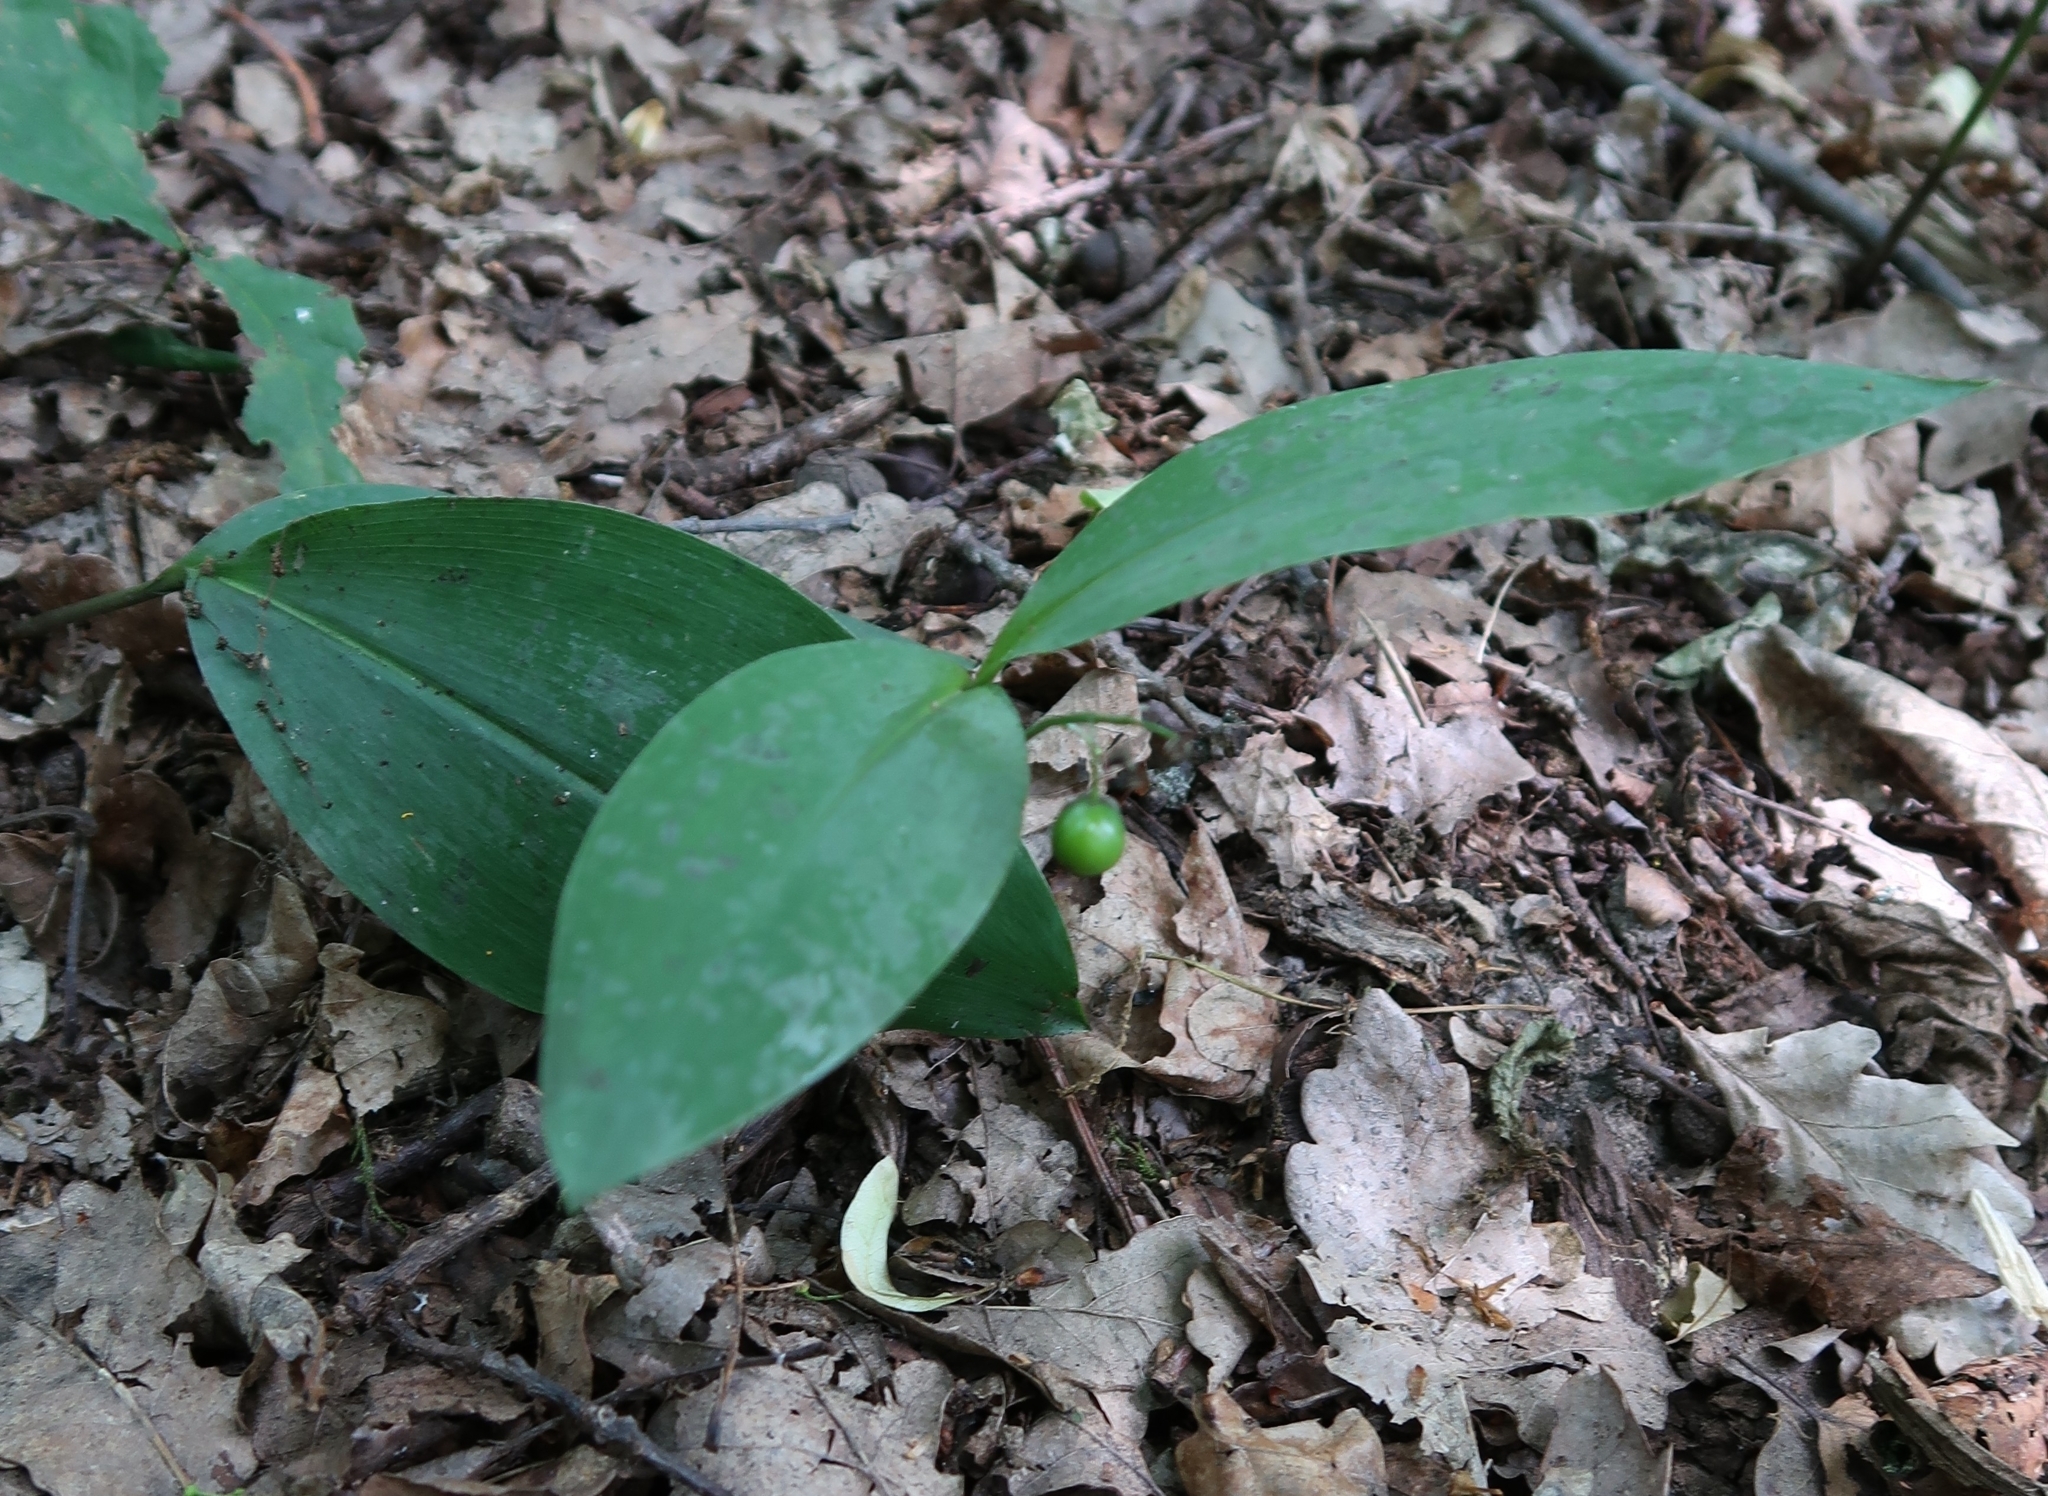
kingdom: Plantae
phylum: Tracheophyta
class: Liliopsida
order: Asparagales
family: Asparagaceae
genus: Convallaria
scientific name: Convallaria majalis
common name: Lily-of-the-valley
